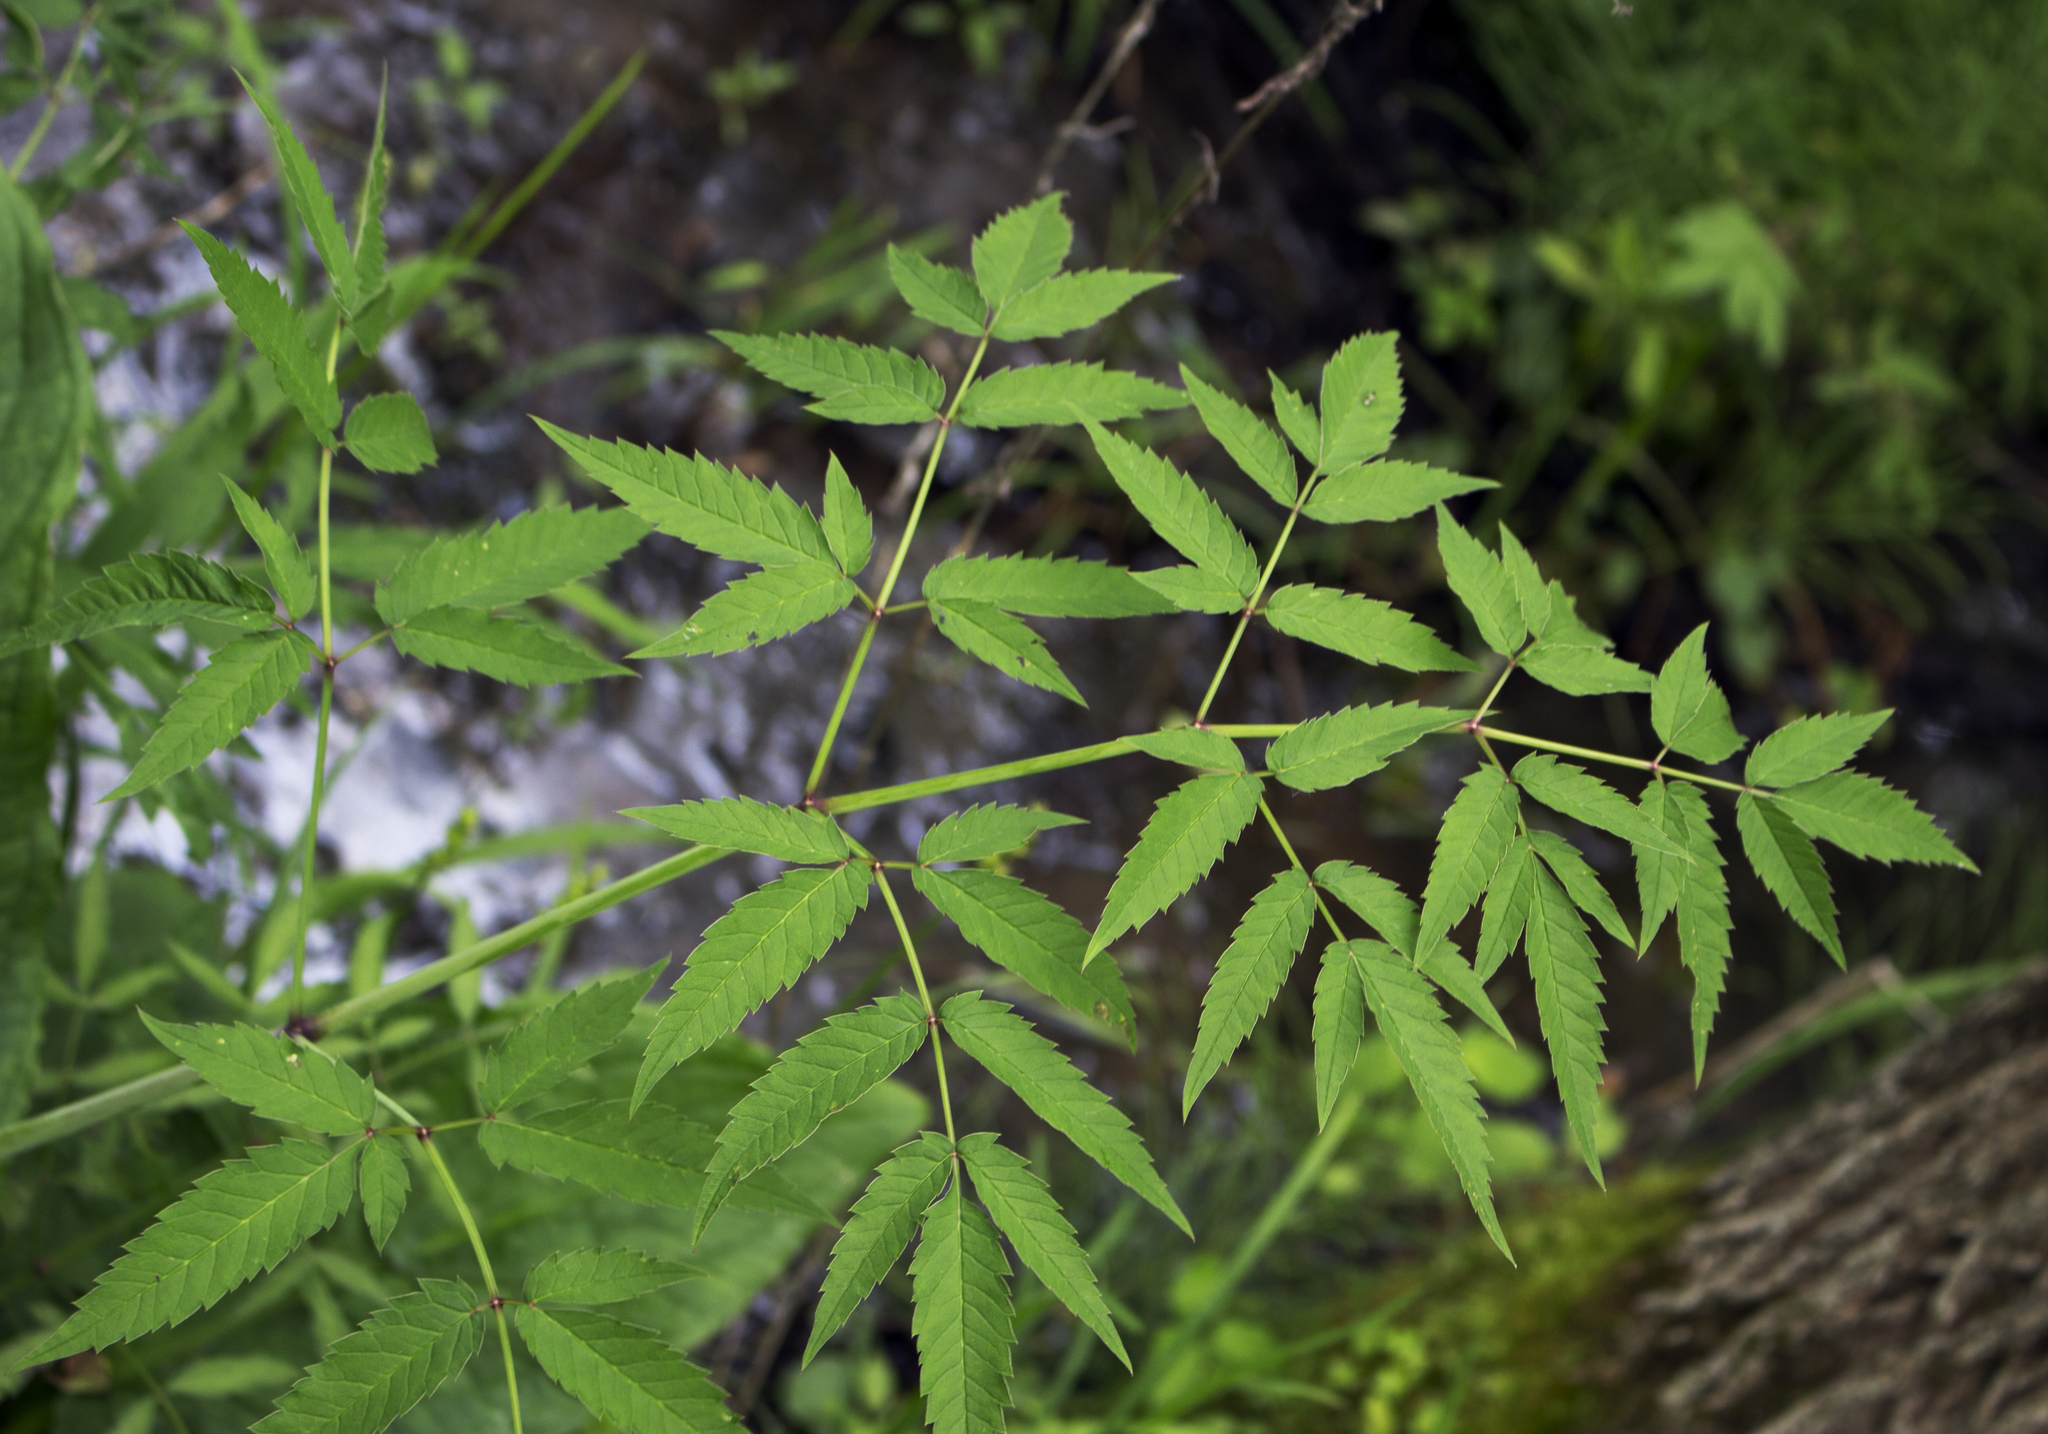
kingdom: Plantae
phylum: Tracheophyta
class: Magnoliopsida
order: Apiales
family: Apiaceae
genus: Cicuta
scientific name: Cicuta maculata
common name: Spotted cowbane
